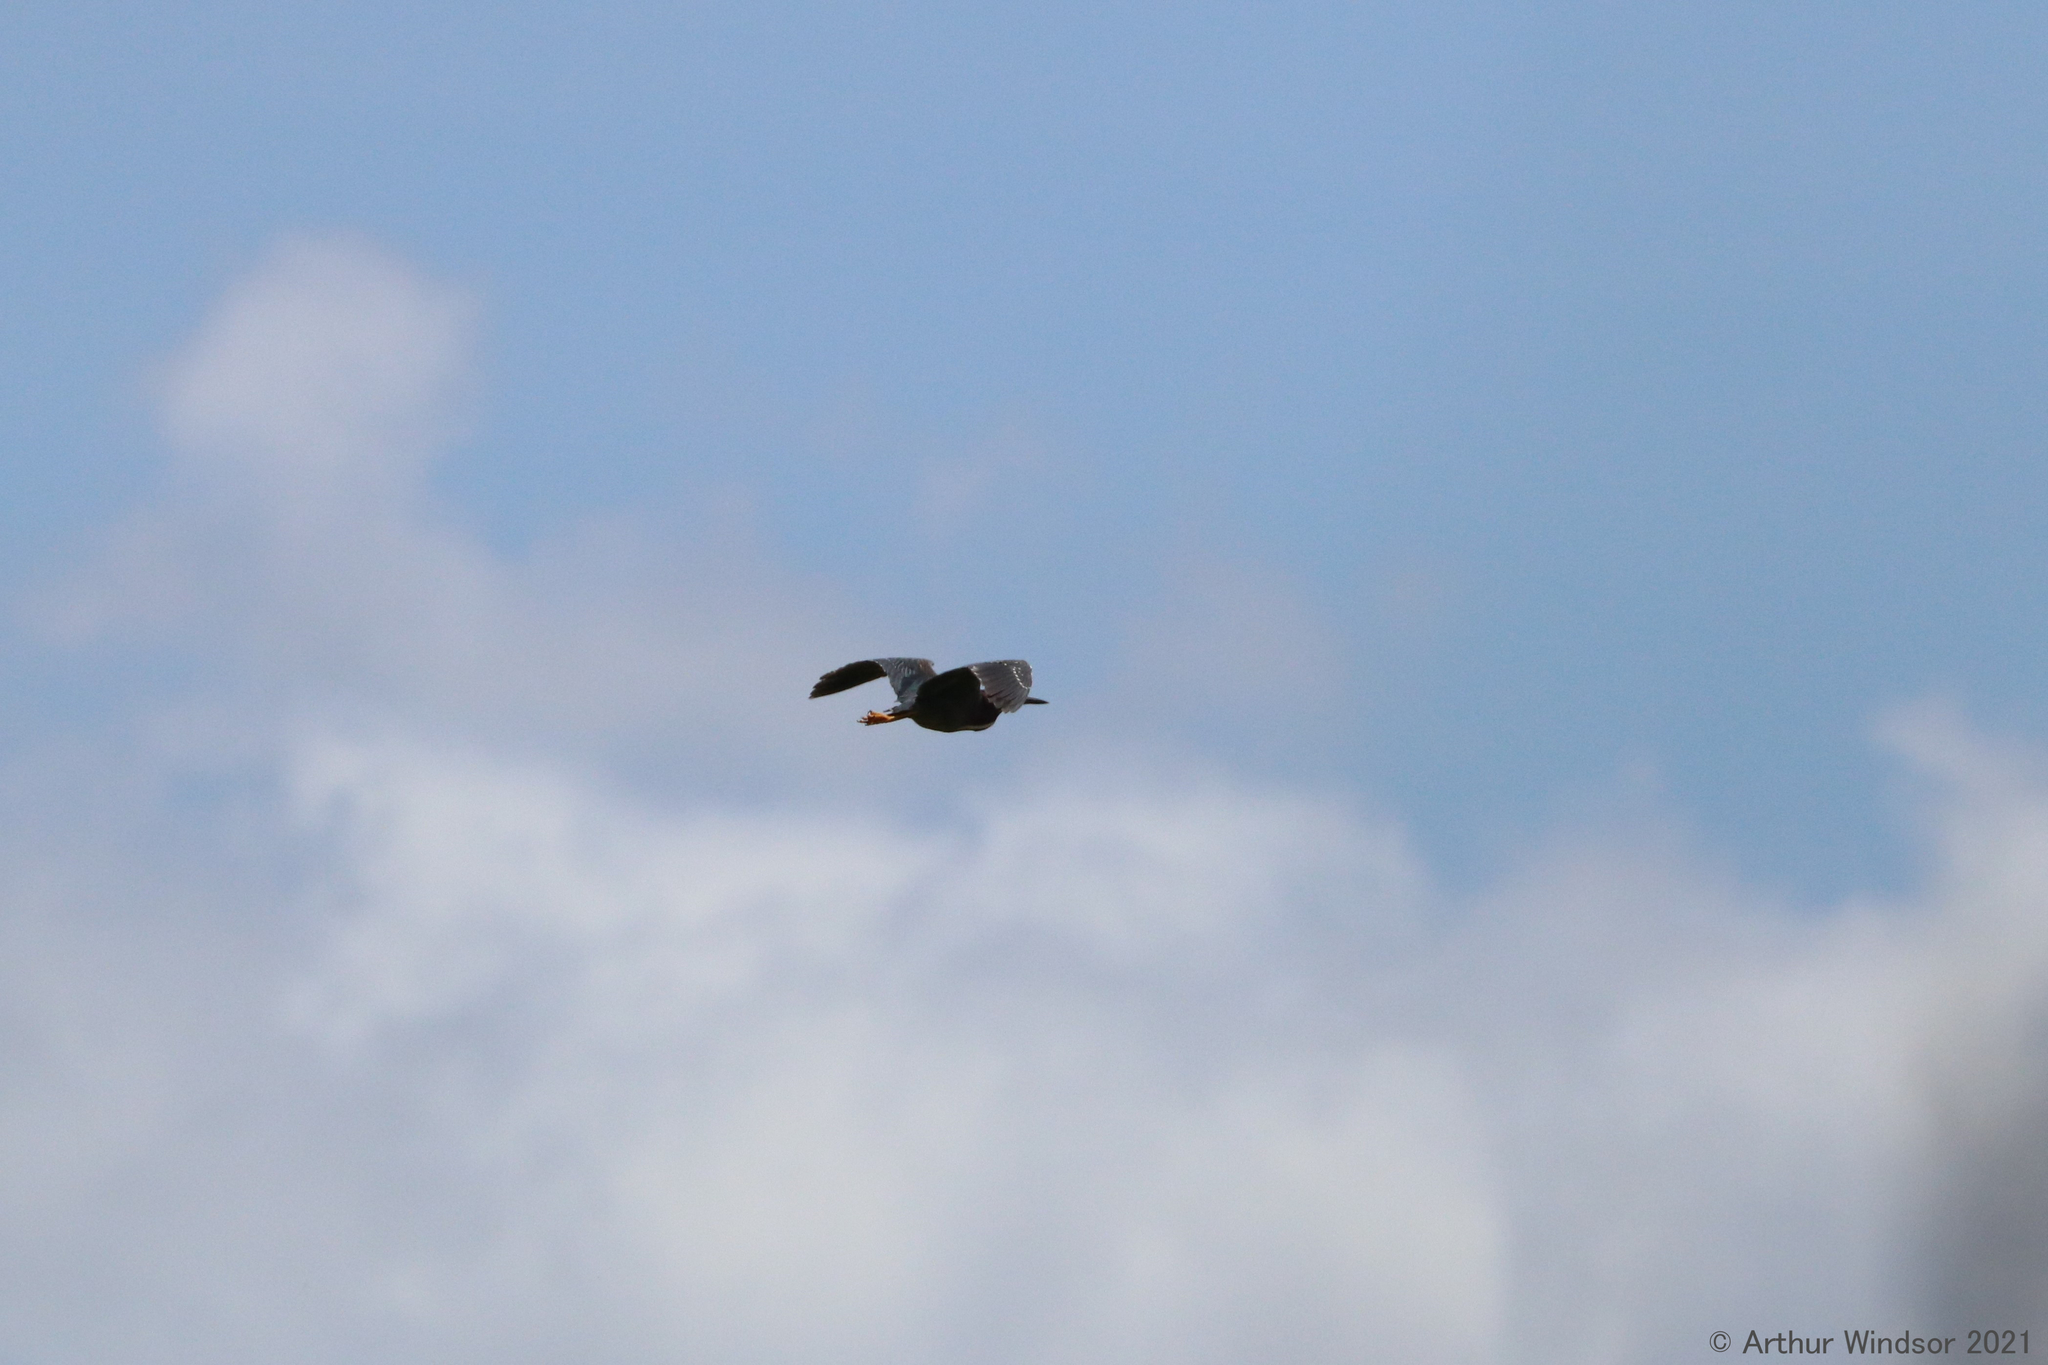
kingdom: Animalia
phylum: Chordata
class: Aves
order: Pelecaniformes
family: Ardeidae
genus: Butorides
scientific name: Butorides virescens
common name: Green heron
